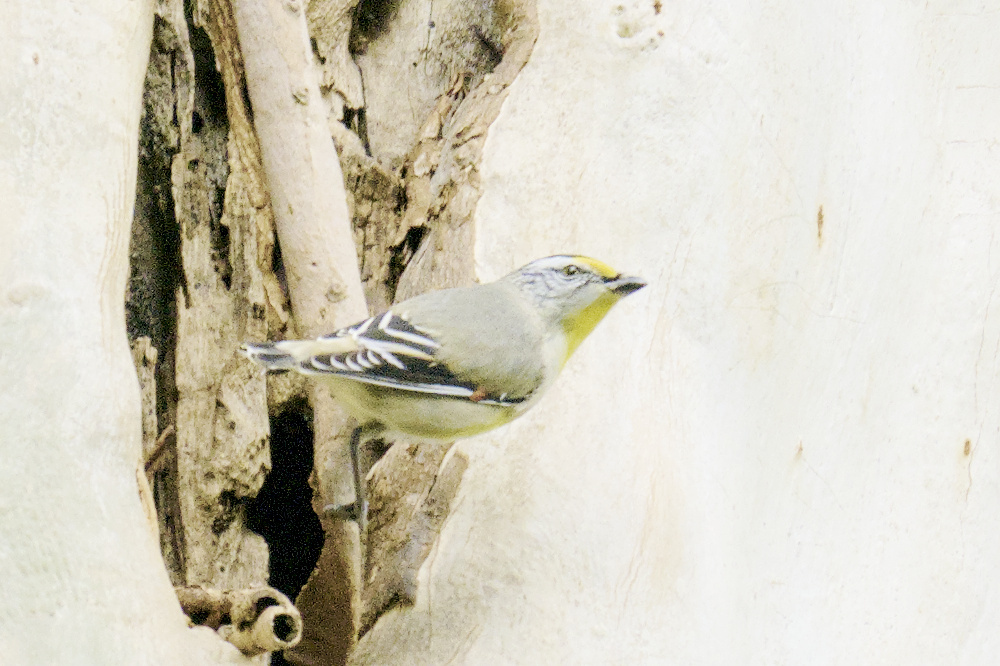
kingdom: Animalia
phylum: Chordata
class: Aves
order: Passeriformes
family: Pardalotidae
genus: Pardalotus
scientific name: Pardalotus striatus
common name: Striated pardalote
